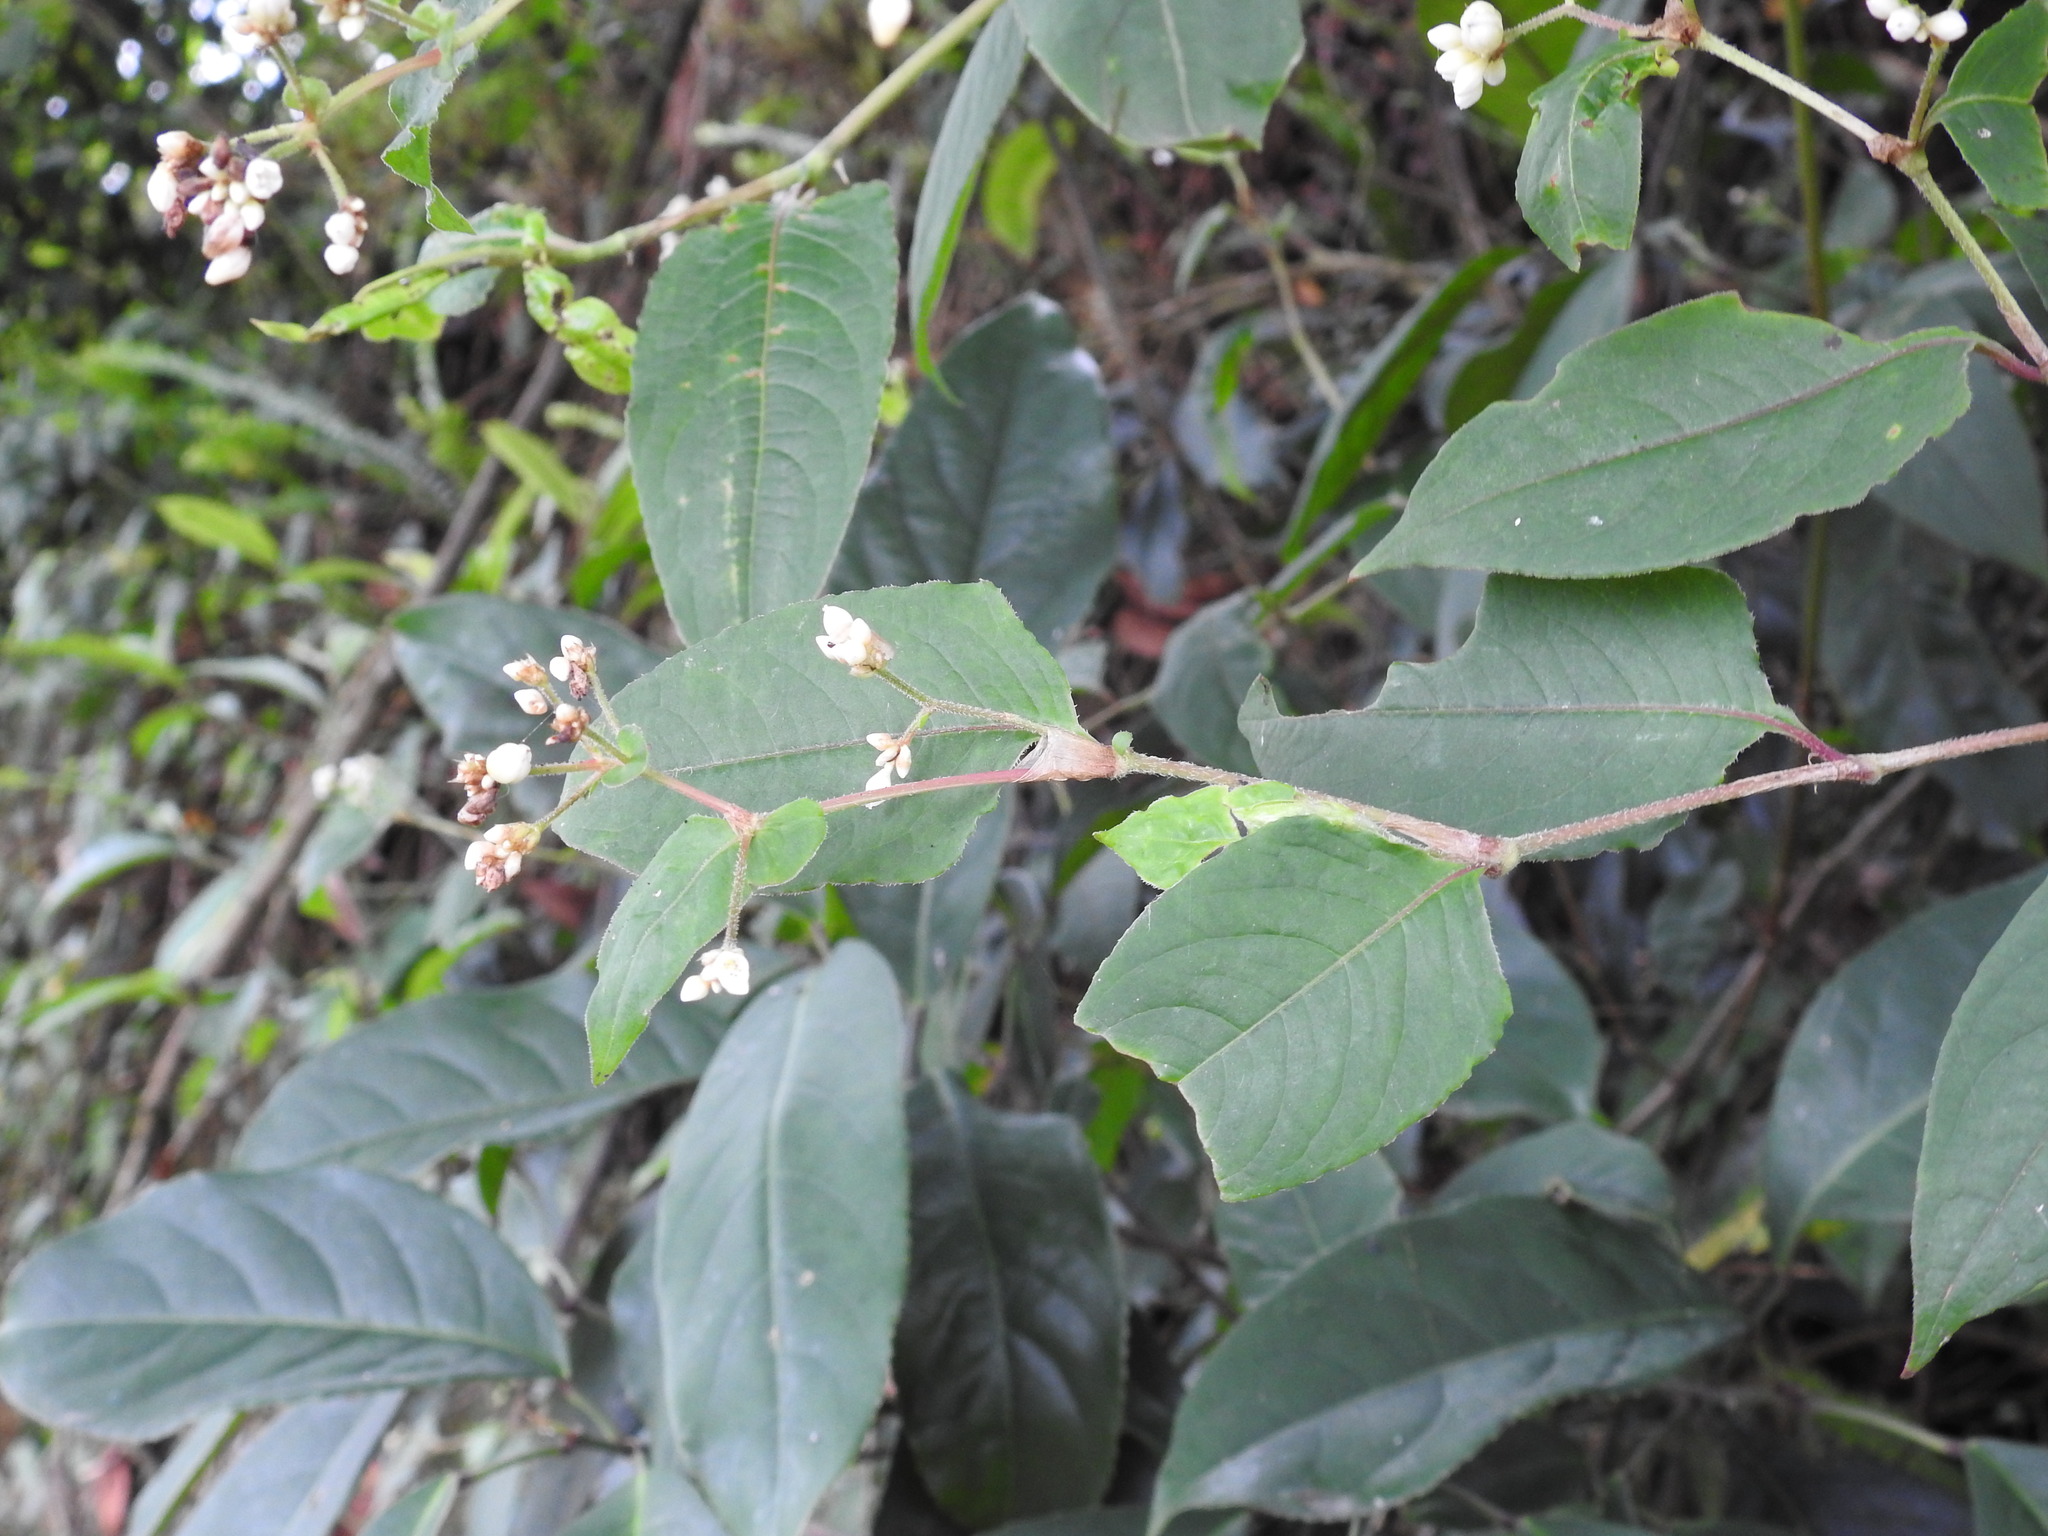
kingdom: Plantae
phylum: Tracheophyta
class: Magnoliopsida
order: Caryophyllales
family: Polygonaceae
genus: Persicaria
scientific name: Persicaria chinensis
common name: Chinese knotweed
